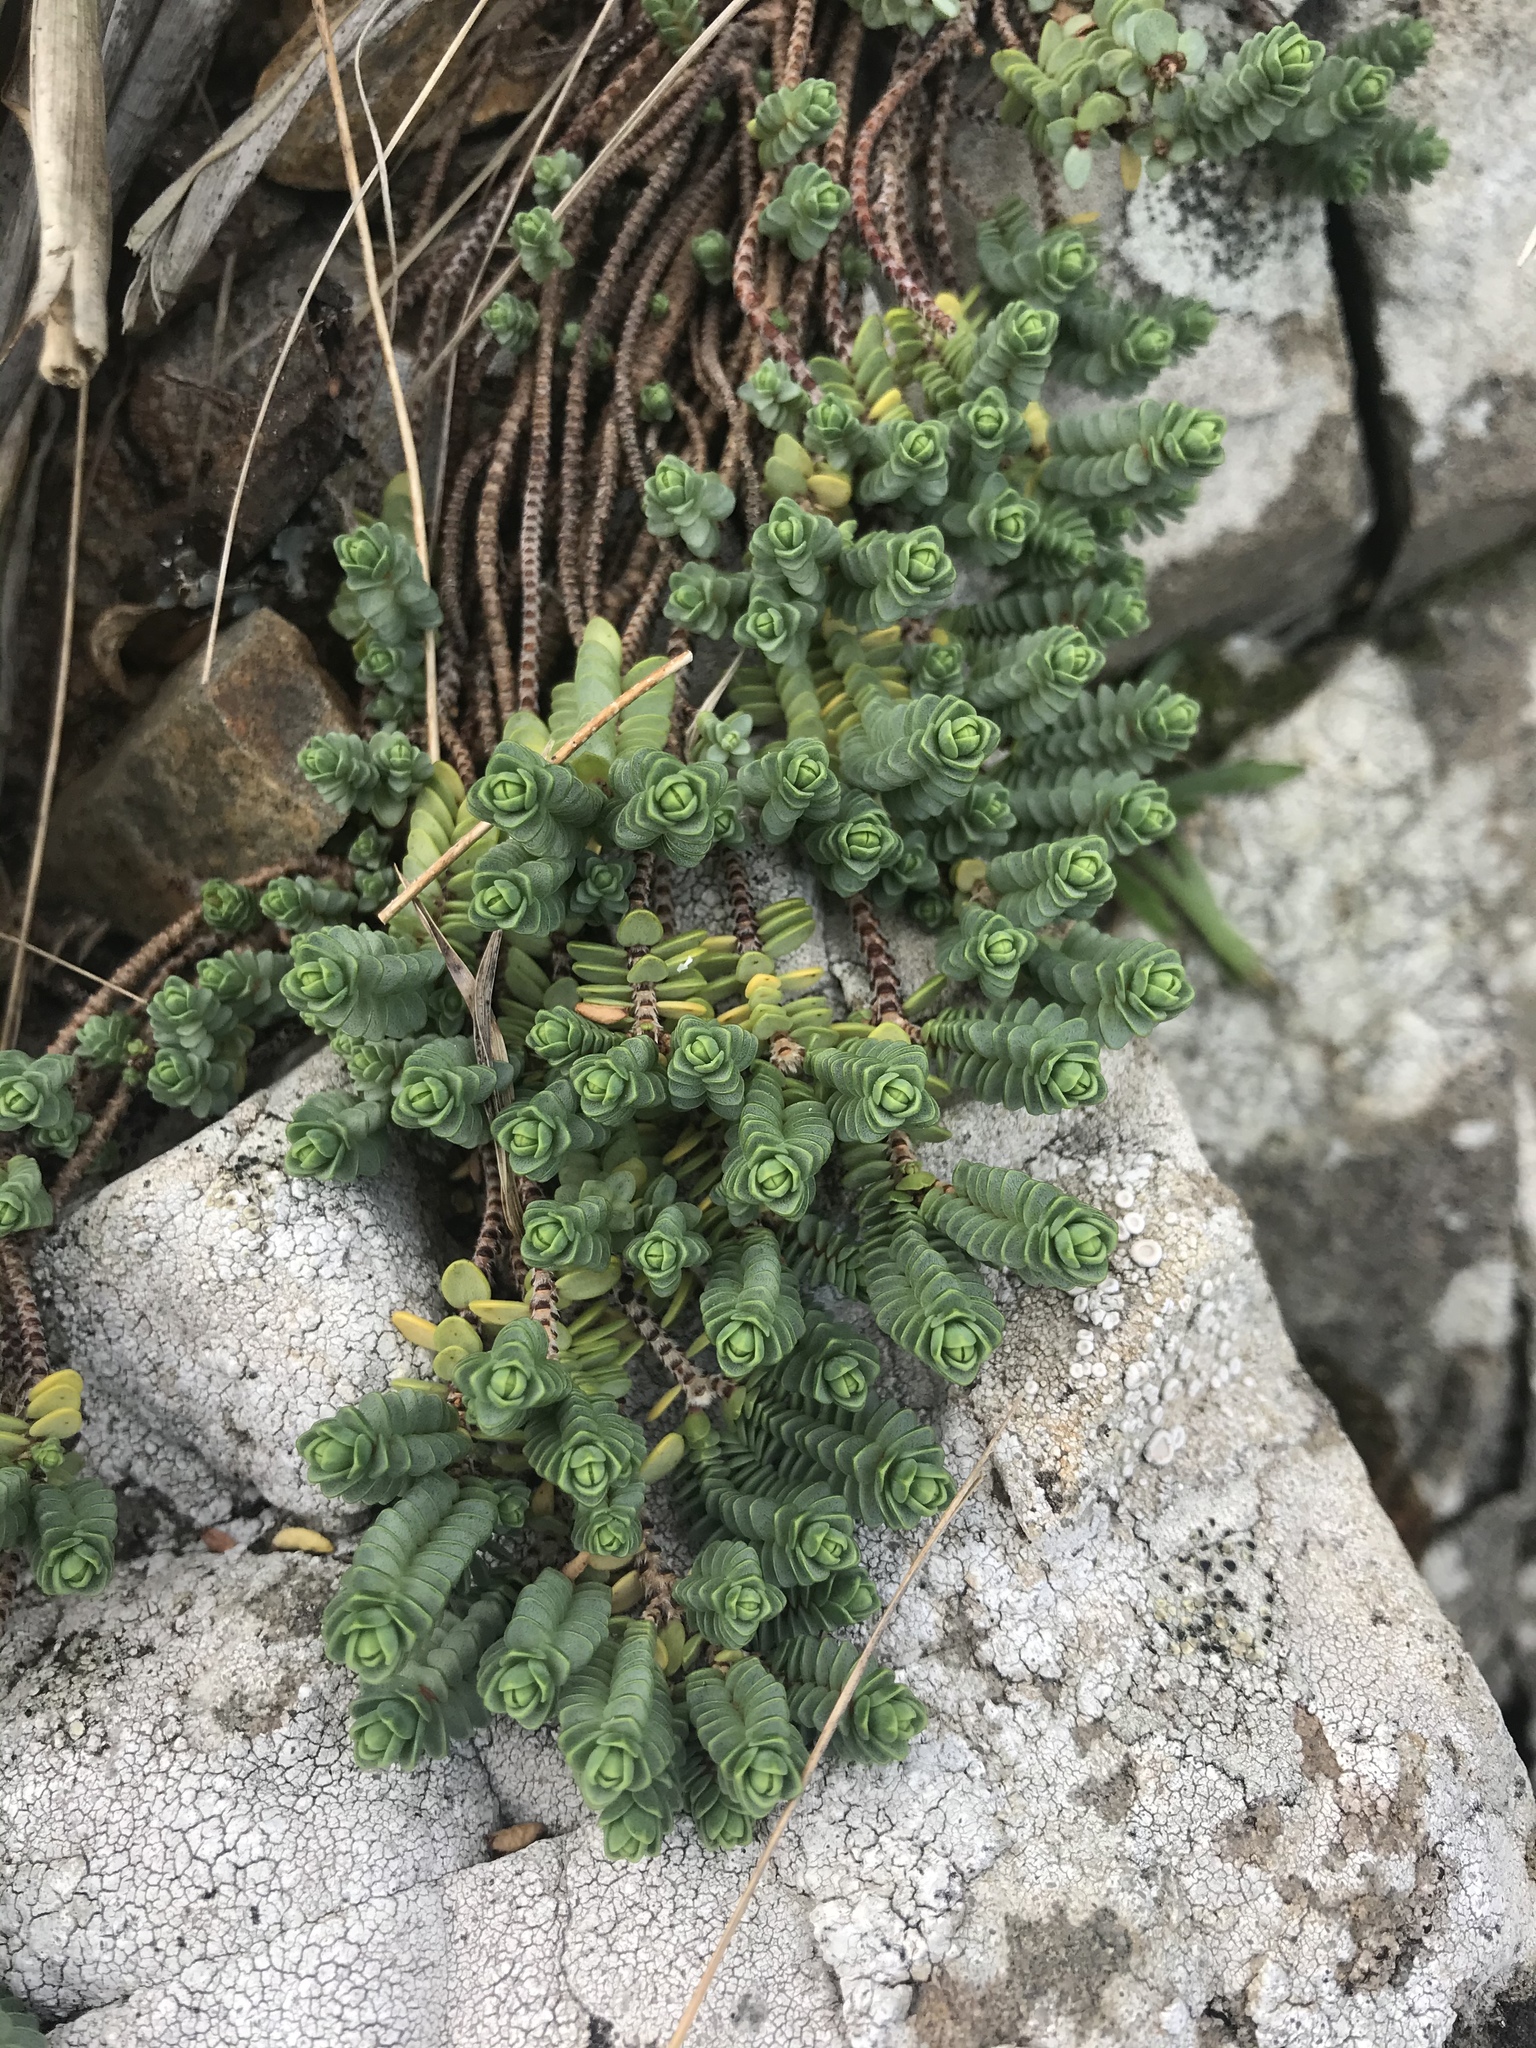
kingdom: Plantae
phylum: Tracheophyta
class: Magnoliopsida
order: Malvales
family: Thymelaeaceae
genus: Pimelea
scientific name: Pimelea carnosa
